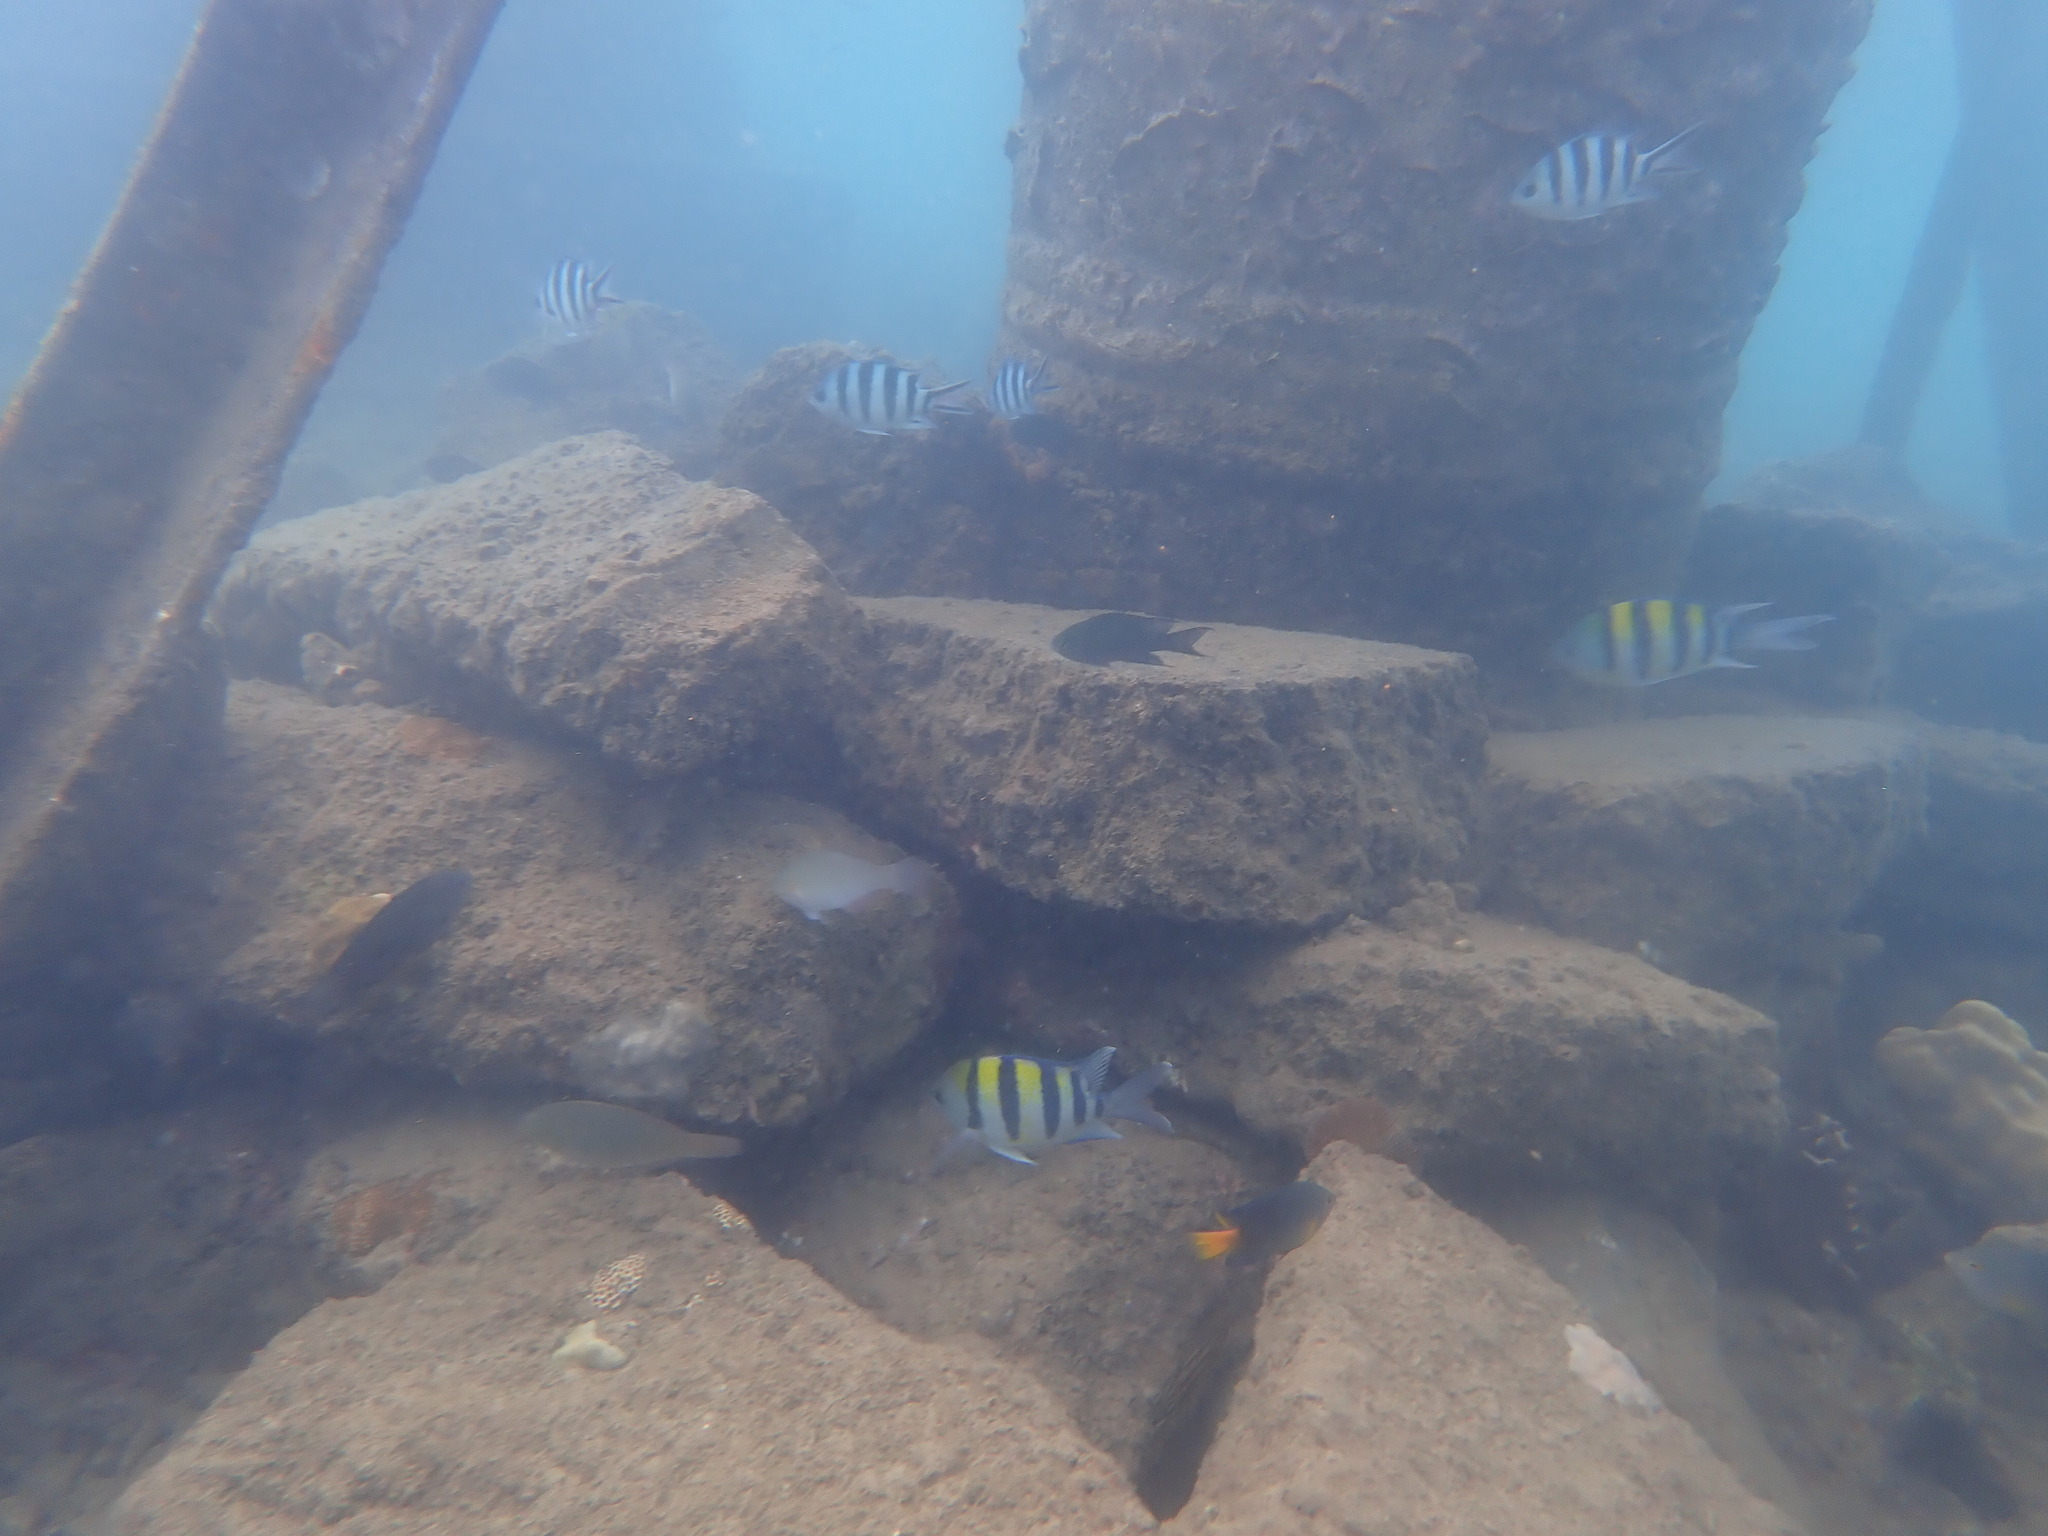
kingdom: Animalia
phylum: Chordata
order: Perciformes
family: Pomacentridae
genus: Abudefduf
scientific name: Abudefduf vaigiensis
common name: Indo-pacific sergeant
